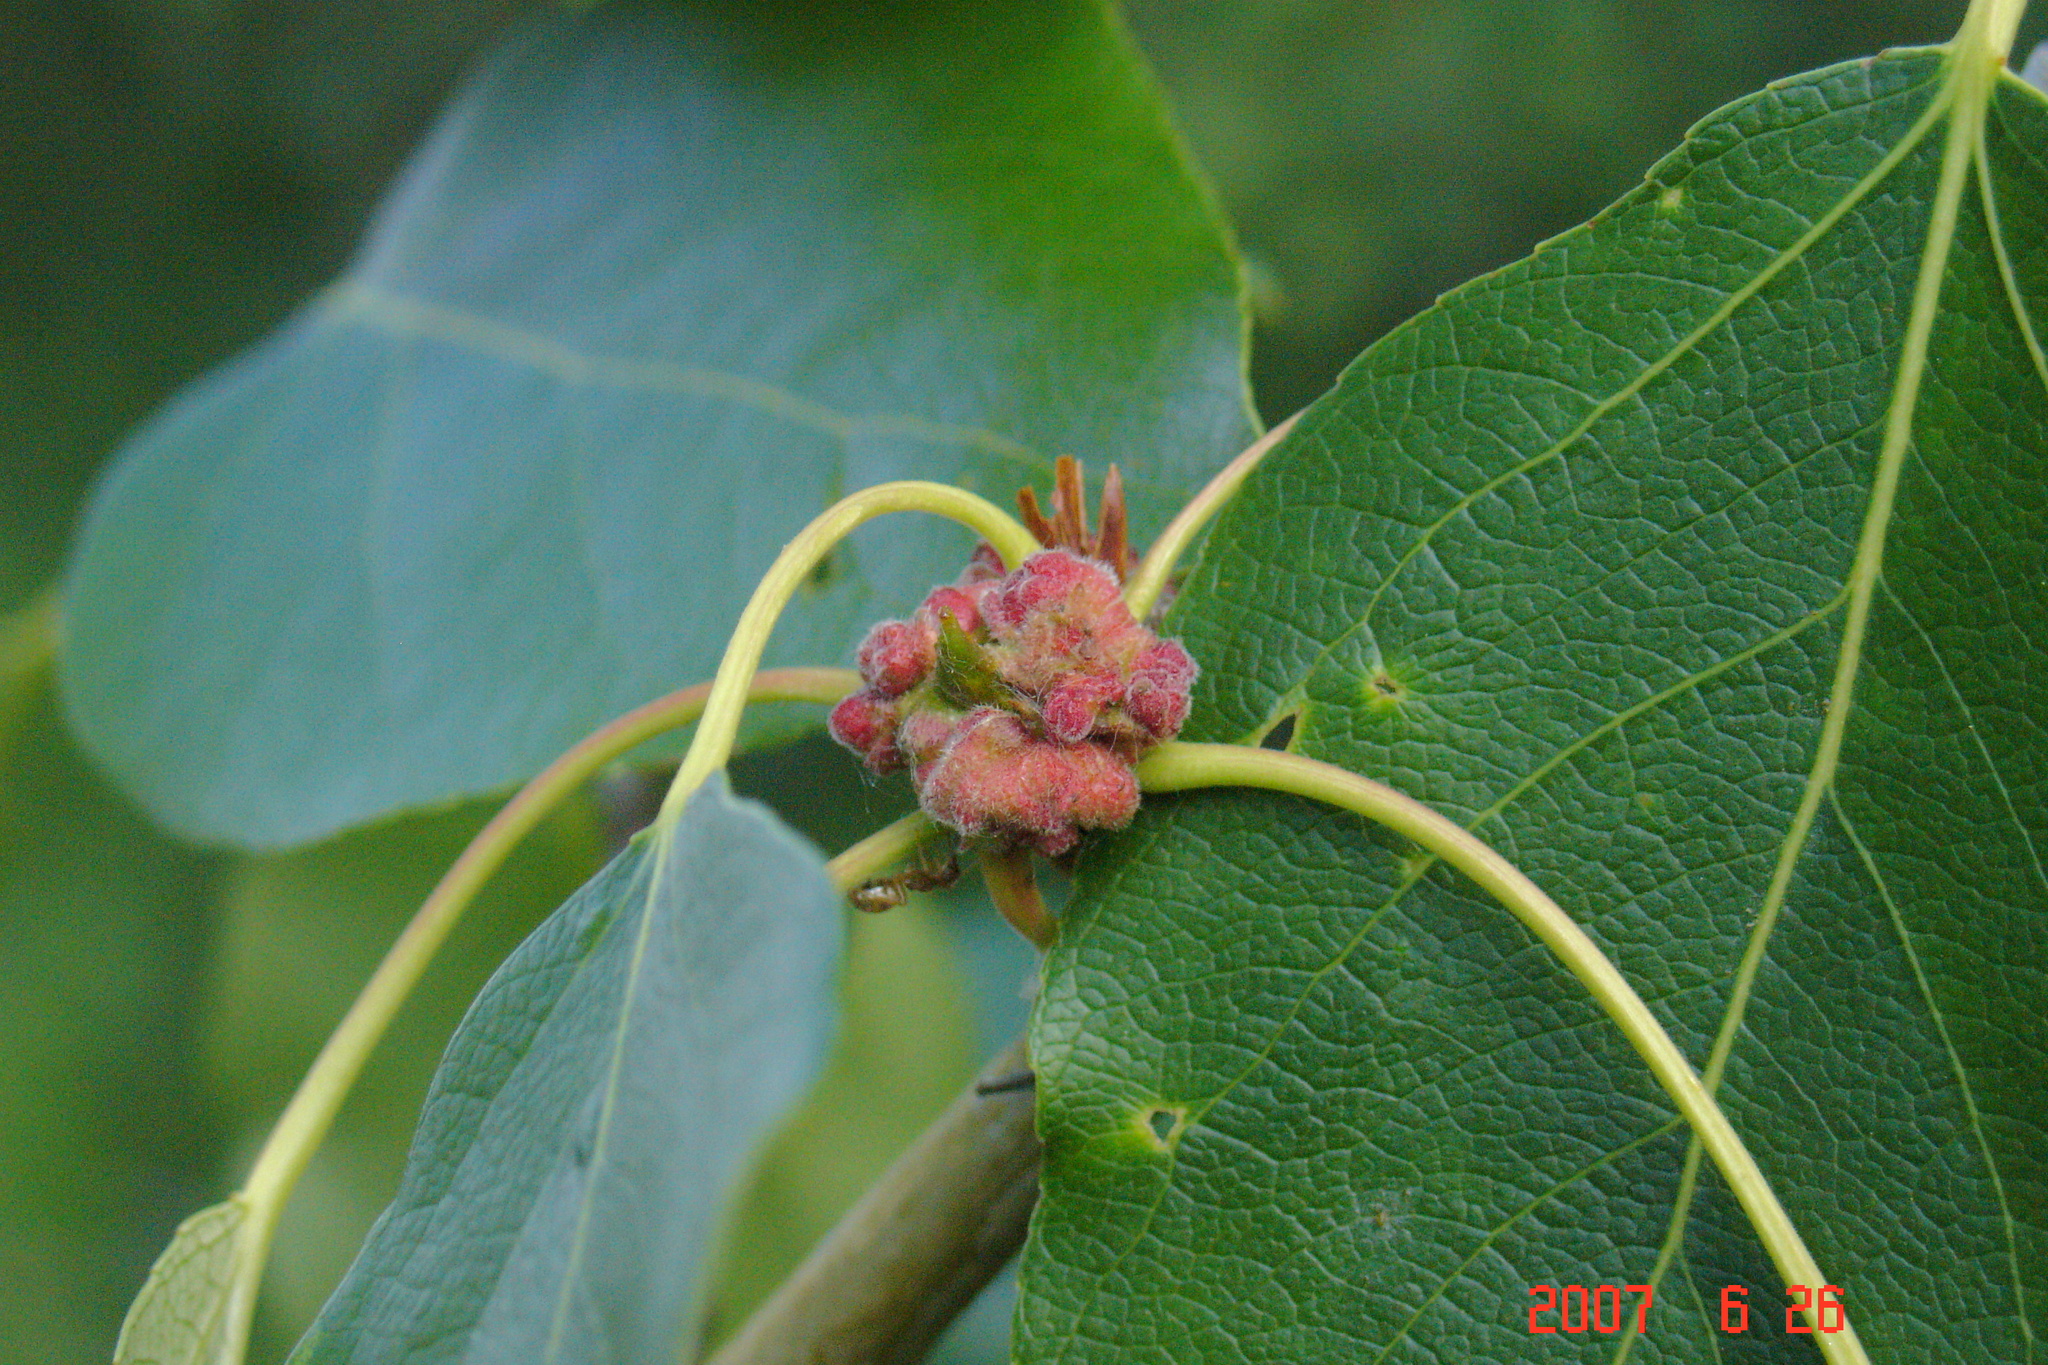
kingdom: Animalia
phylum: Arthropoda
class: Arachnida
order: Trombidiformes
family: Eriophyidae
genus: Aceria
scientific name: Aceria
